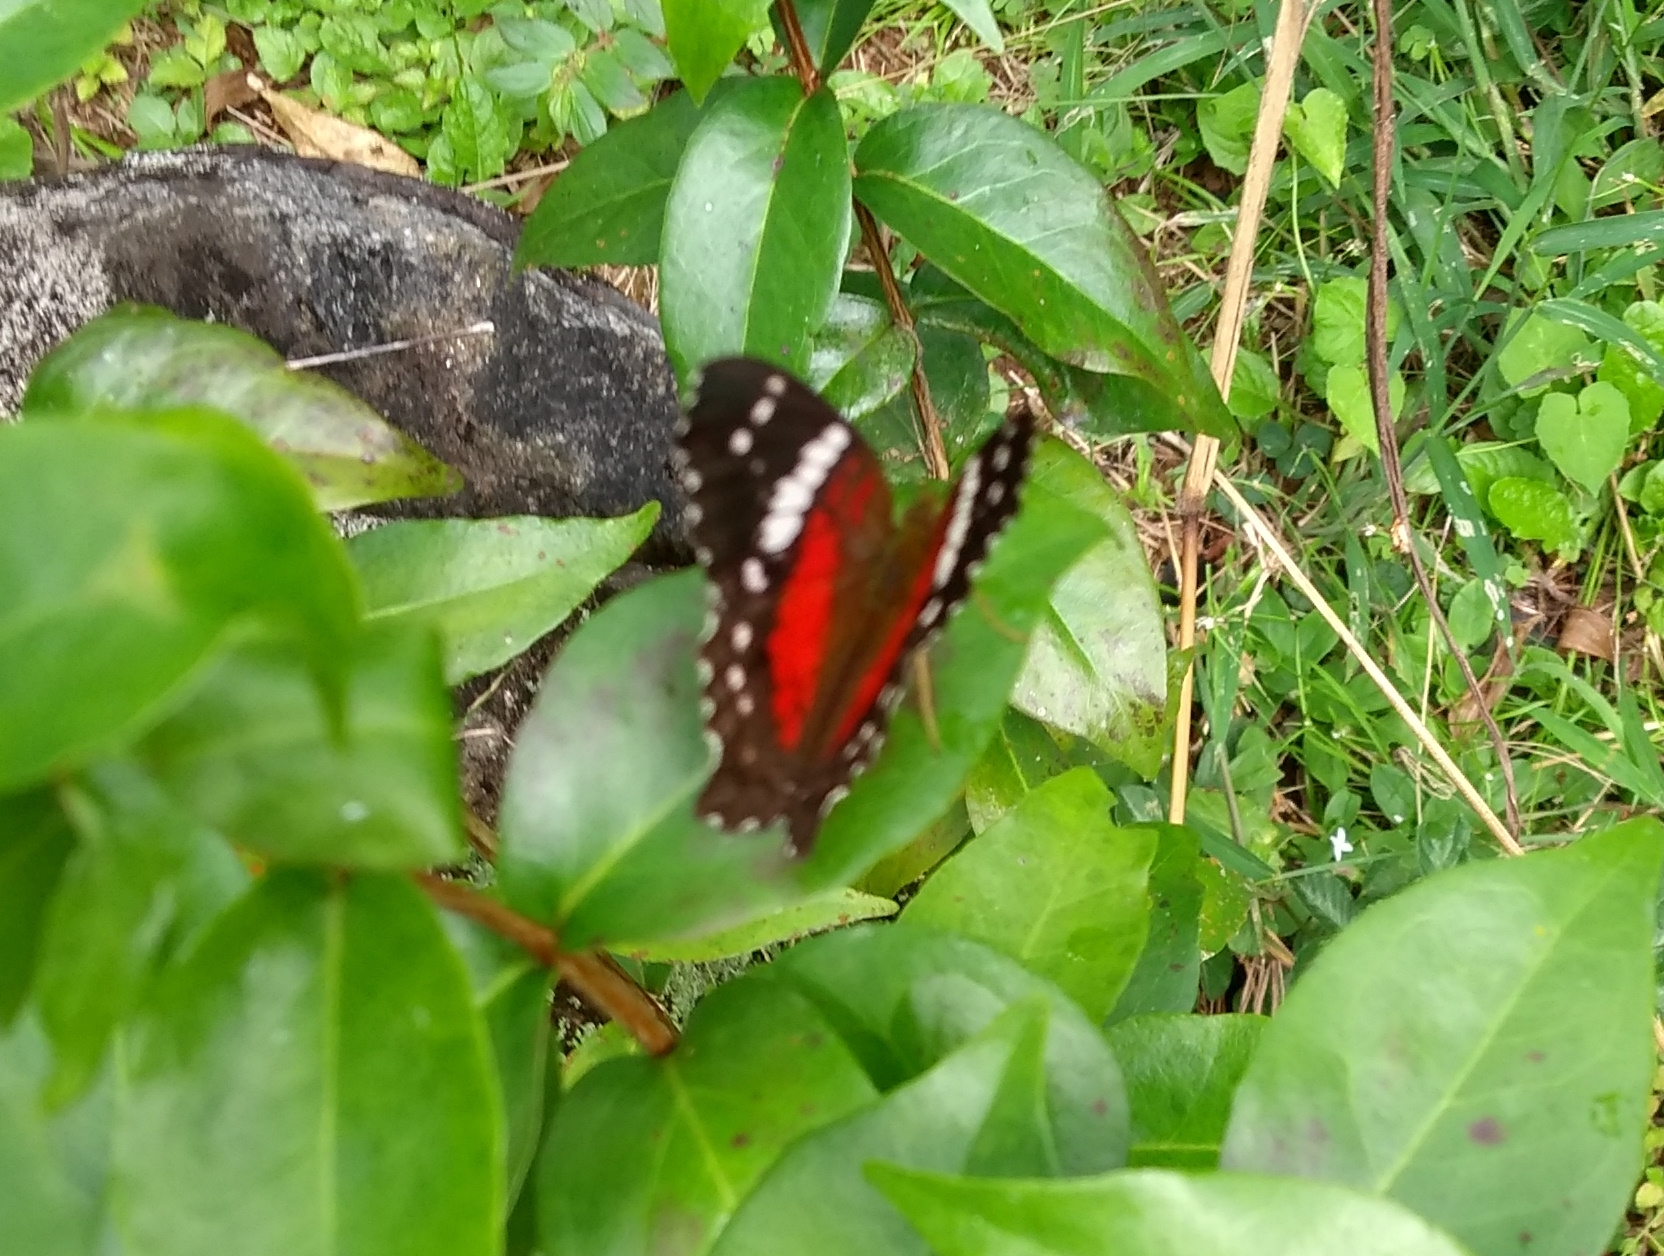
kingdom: Animalia
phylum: Arthropoda
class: Insecta
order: Lepidoptera
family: Nymphalidae
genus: Anartia
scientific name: Anartia amathea
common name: Red peacock
